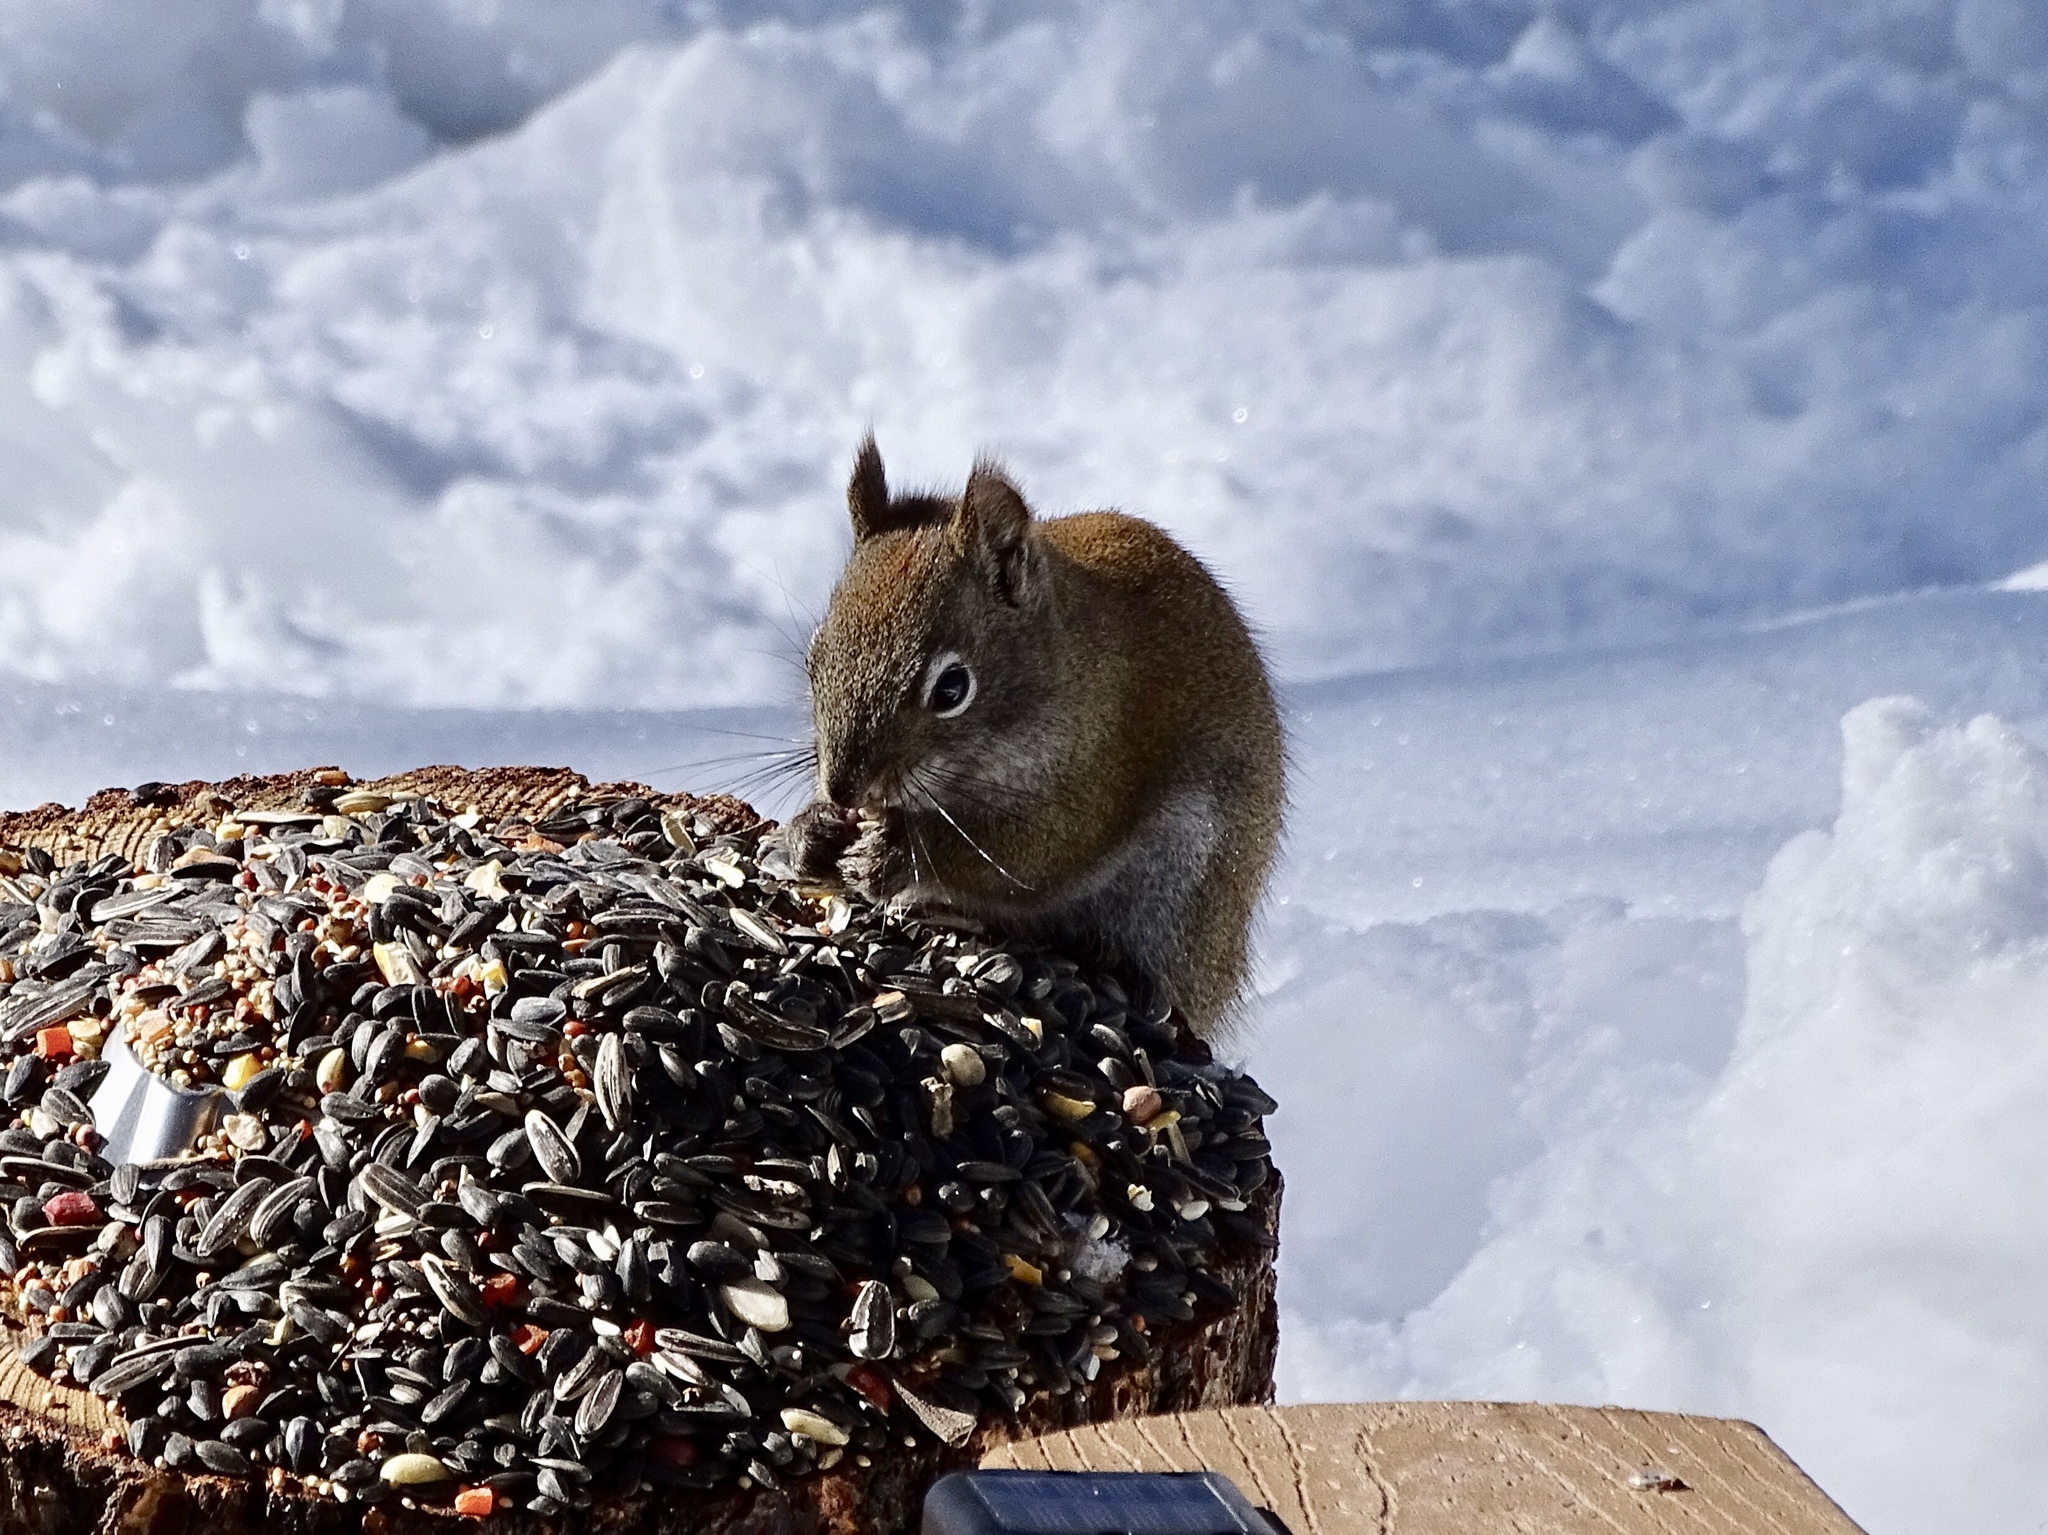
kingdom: Animalia
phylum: Chordata
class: Mammalia
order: Rodentia
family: Sciuridae
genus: Tamiasciurus
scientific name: Tamiasciurus hudsonicus
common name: Red squirrel
